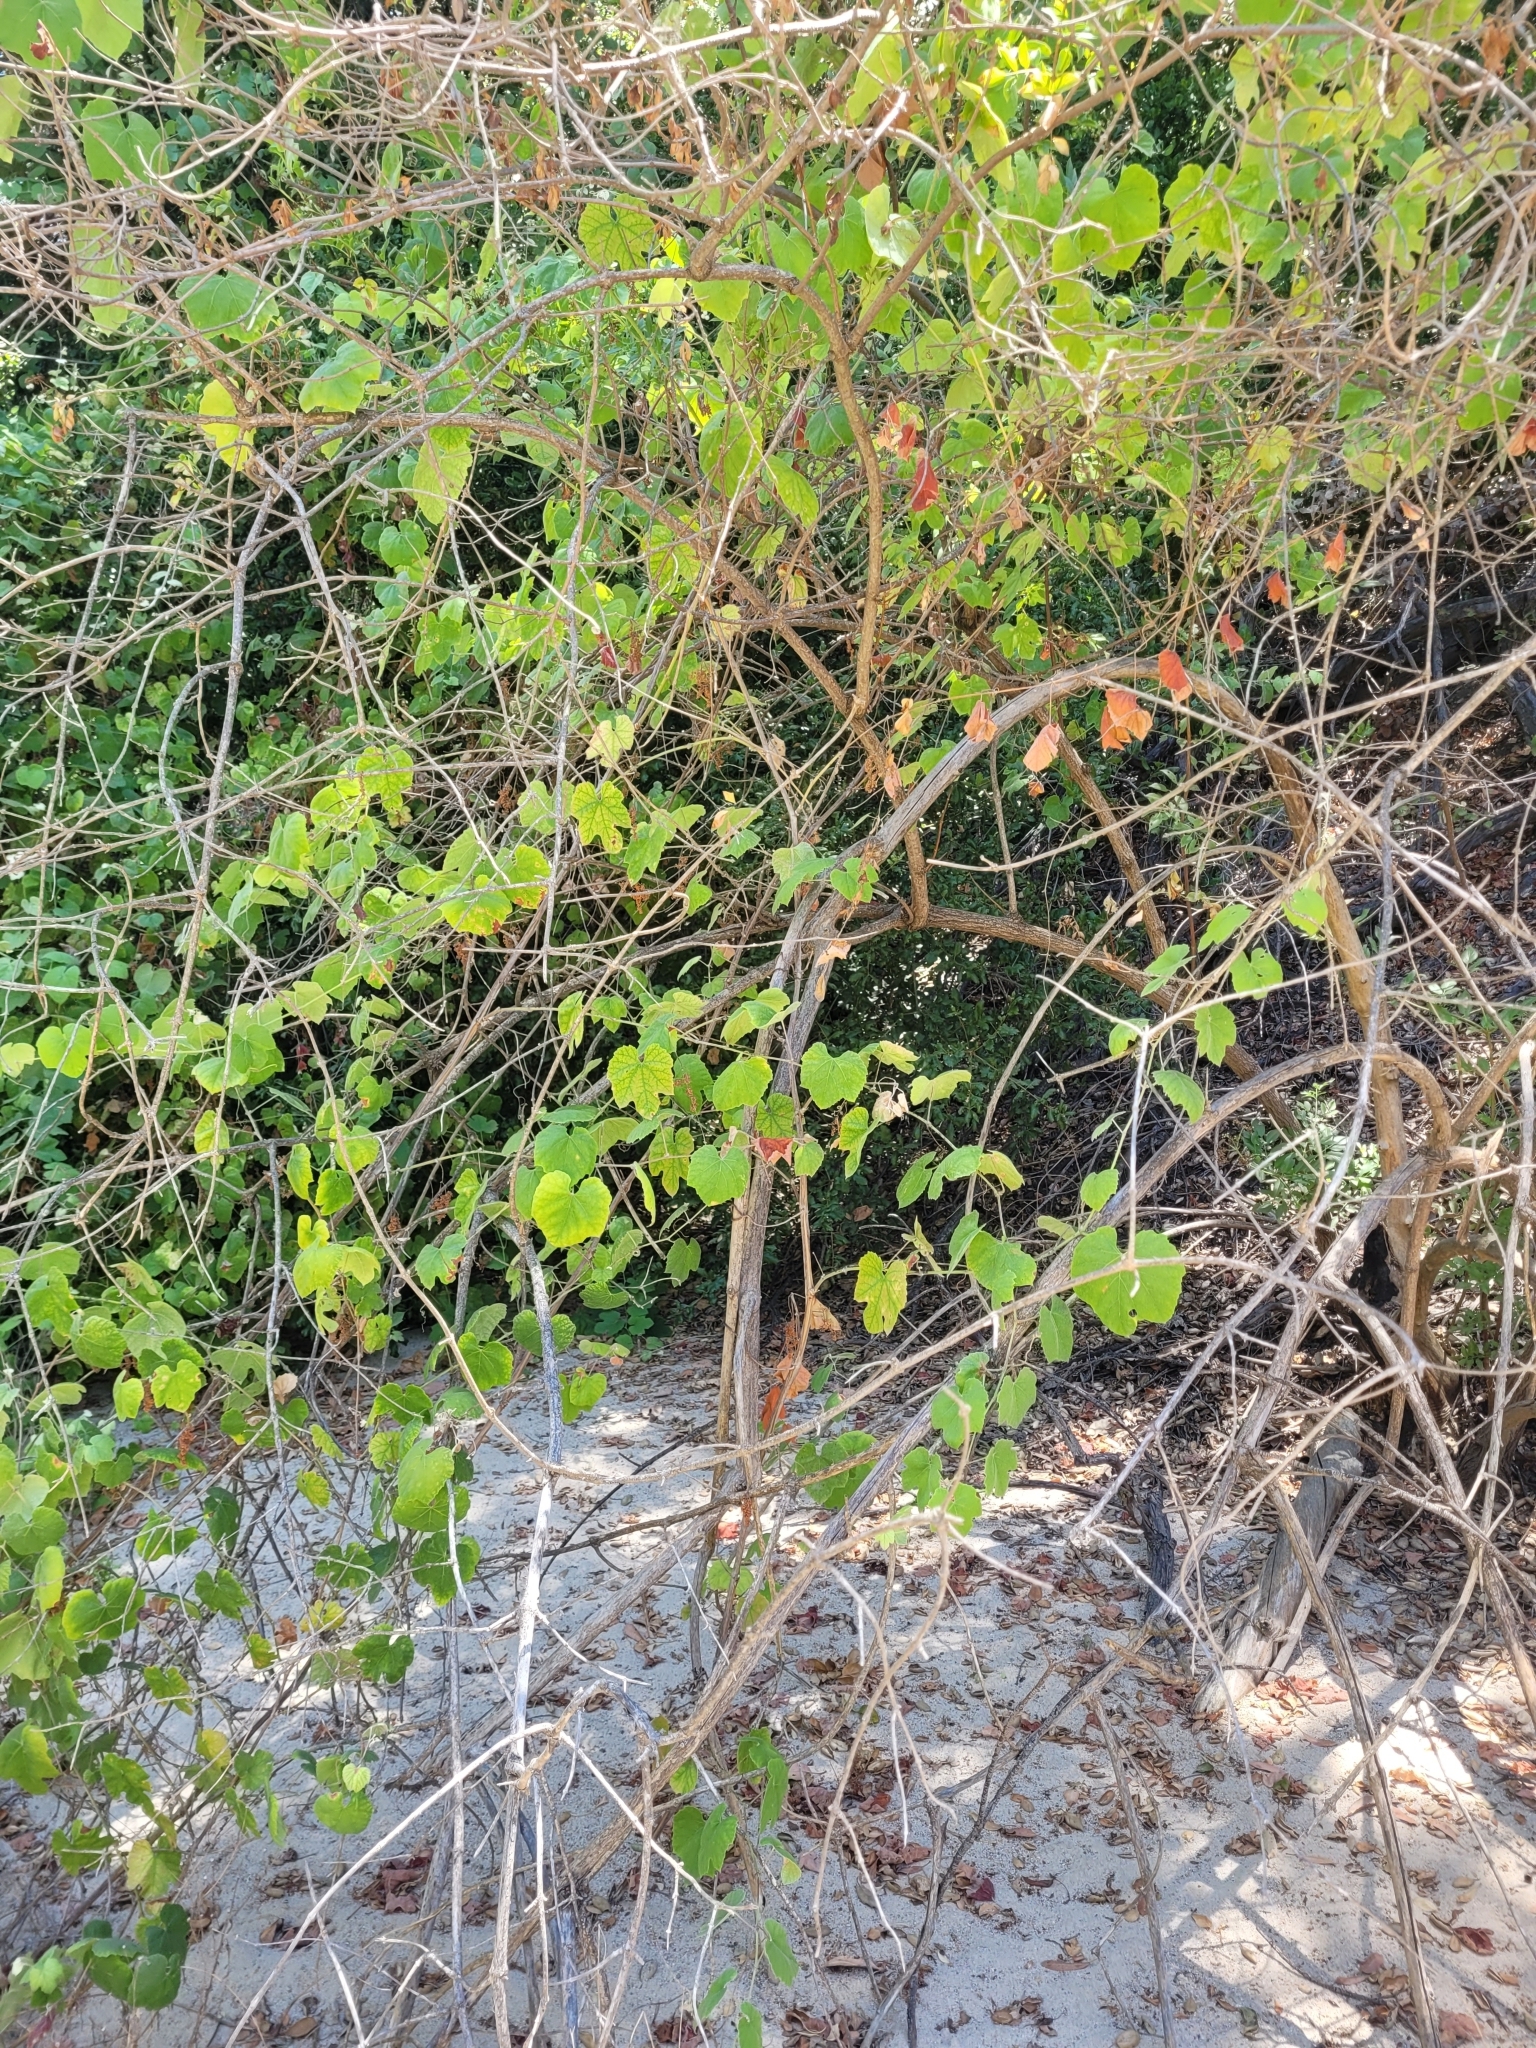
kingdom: Plantae
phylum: Tracheophyta
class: Magnoliopsida
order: Vitales
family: Vitaceae
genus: Vitis
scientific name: Vitis girdiana
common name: Desert wild grape
